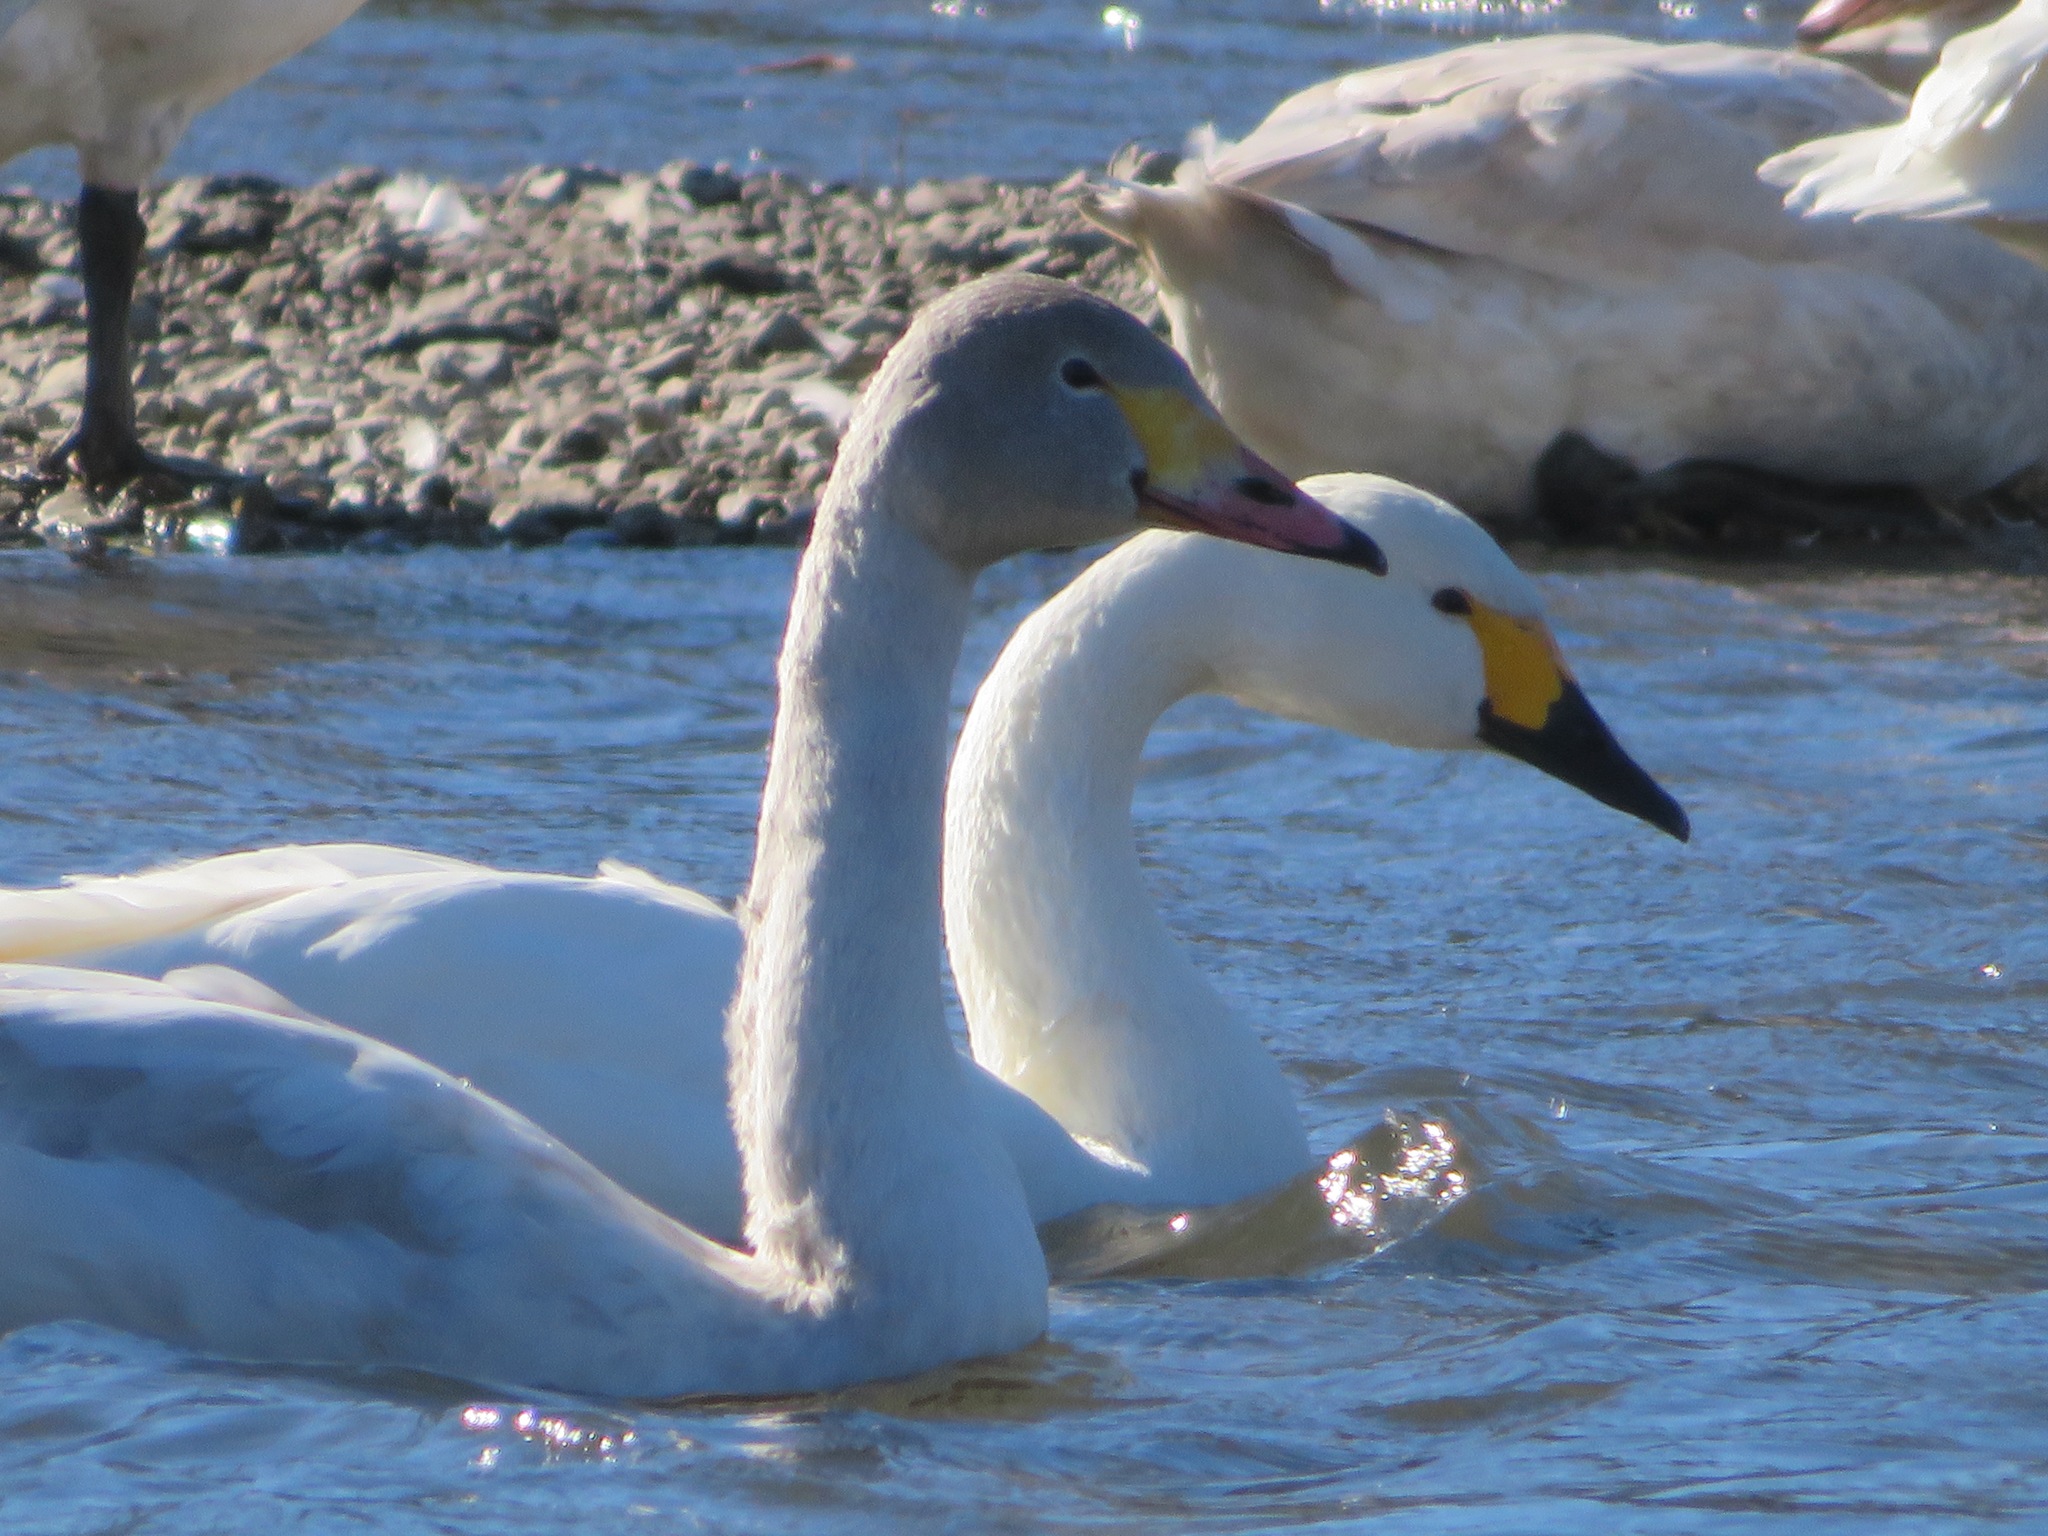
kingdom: Animalia
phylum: Chordata
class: Aves
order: Anseriformes
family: Anatidae
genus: Cygnus
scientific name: Cygnus columbianus
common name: Tundra swan
